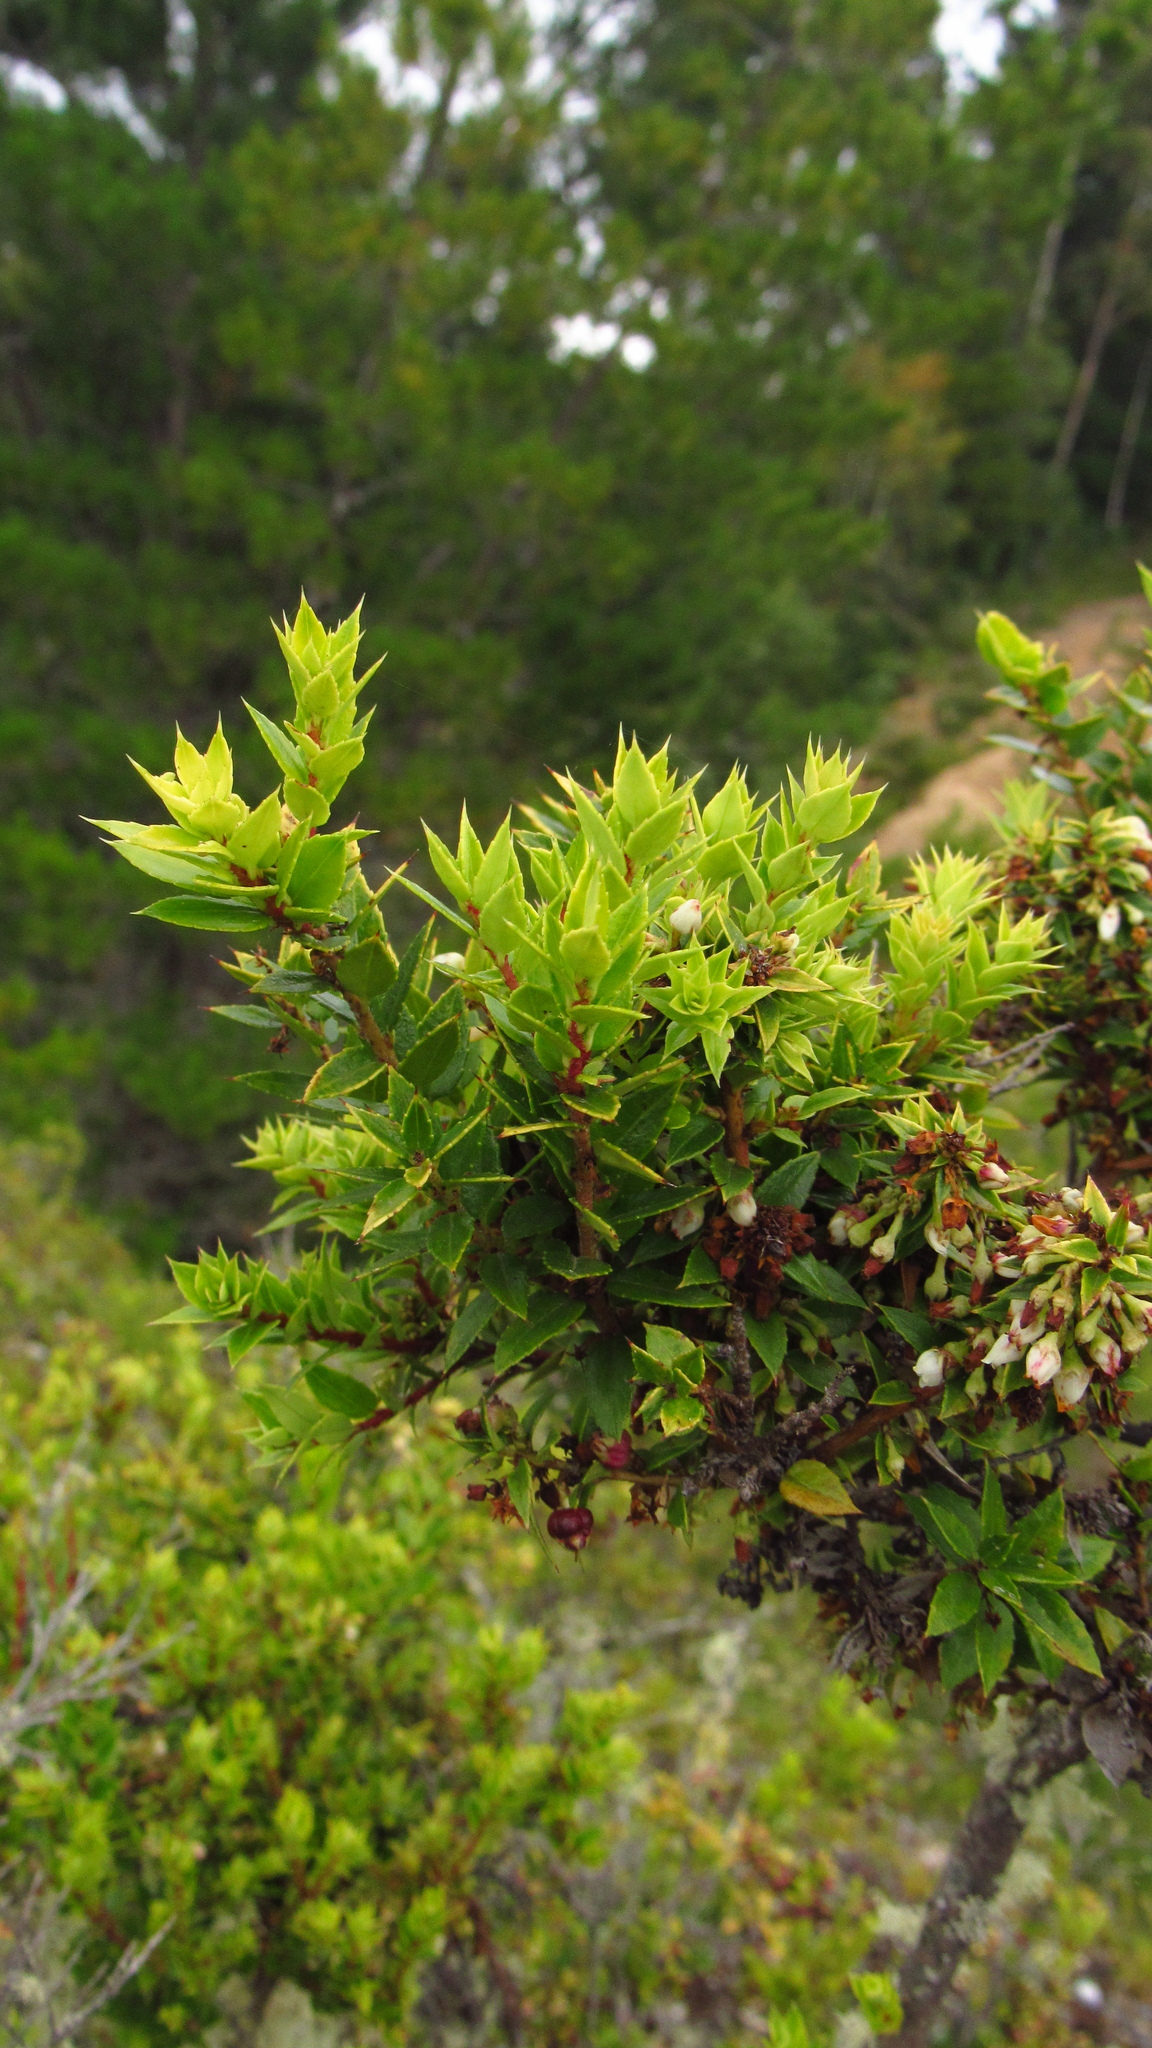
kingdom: Plantae
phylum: Tracheophyta
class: Magnoliopsida
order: Ericales
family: Ericaceae
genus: Gaultheria
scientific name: Gaultheria phillyreifolia
